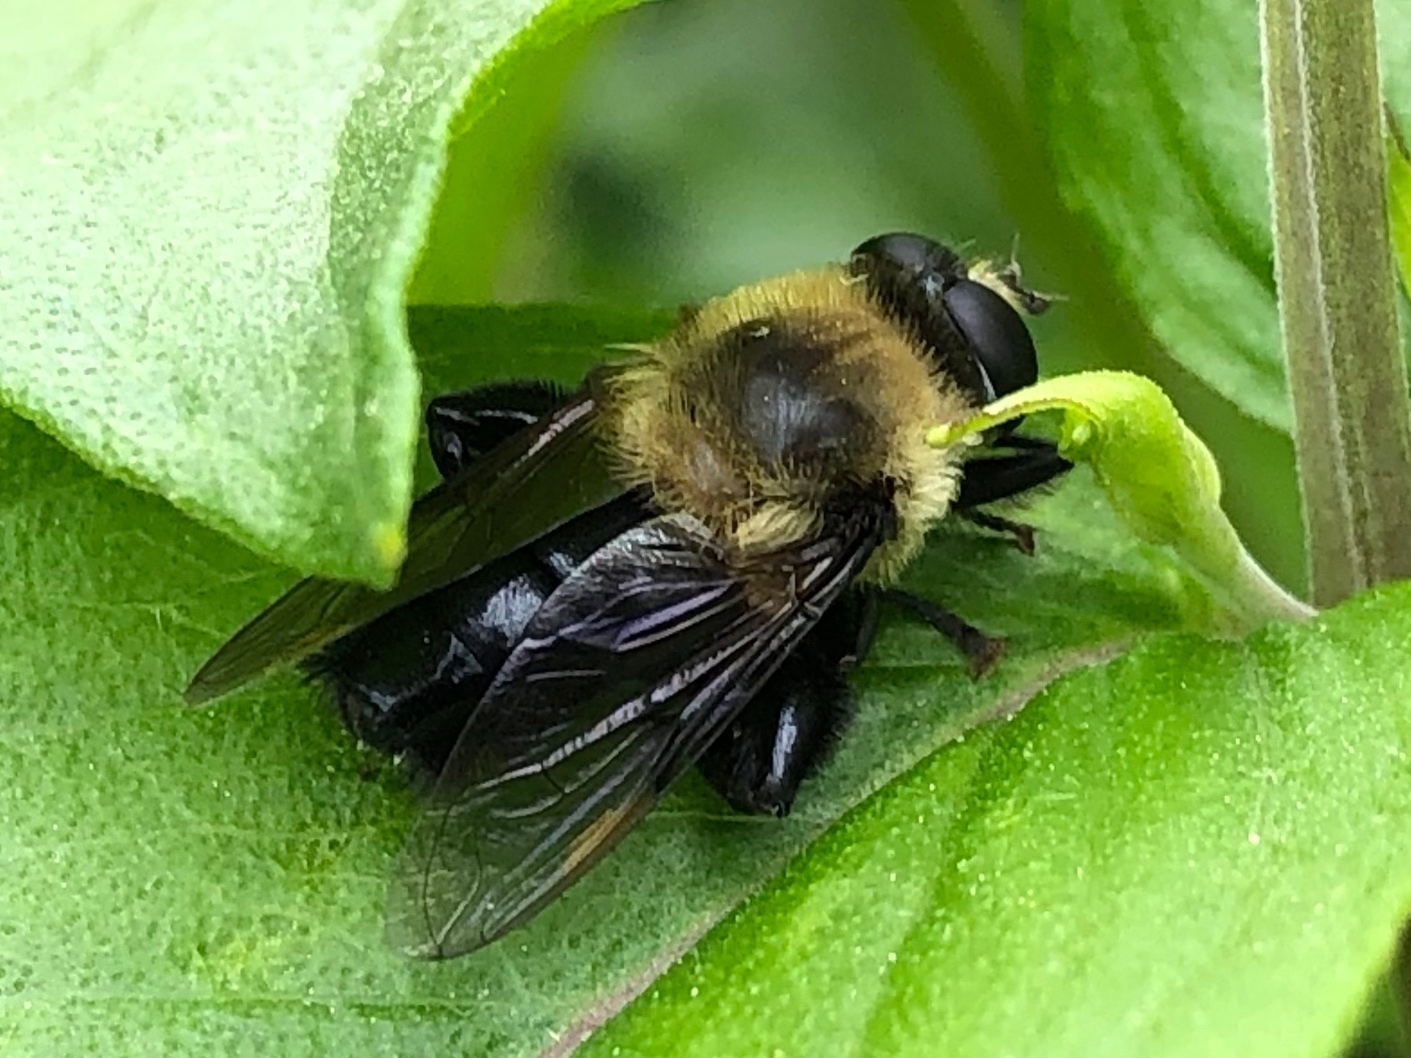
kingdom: Animalia
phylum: Arthropoda
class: Insecta
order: Diptera
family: Syrphidae
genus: Imatisma
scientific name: Imatisma bautias
